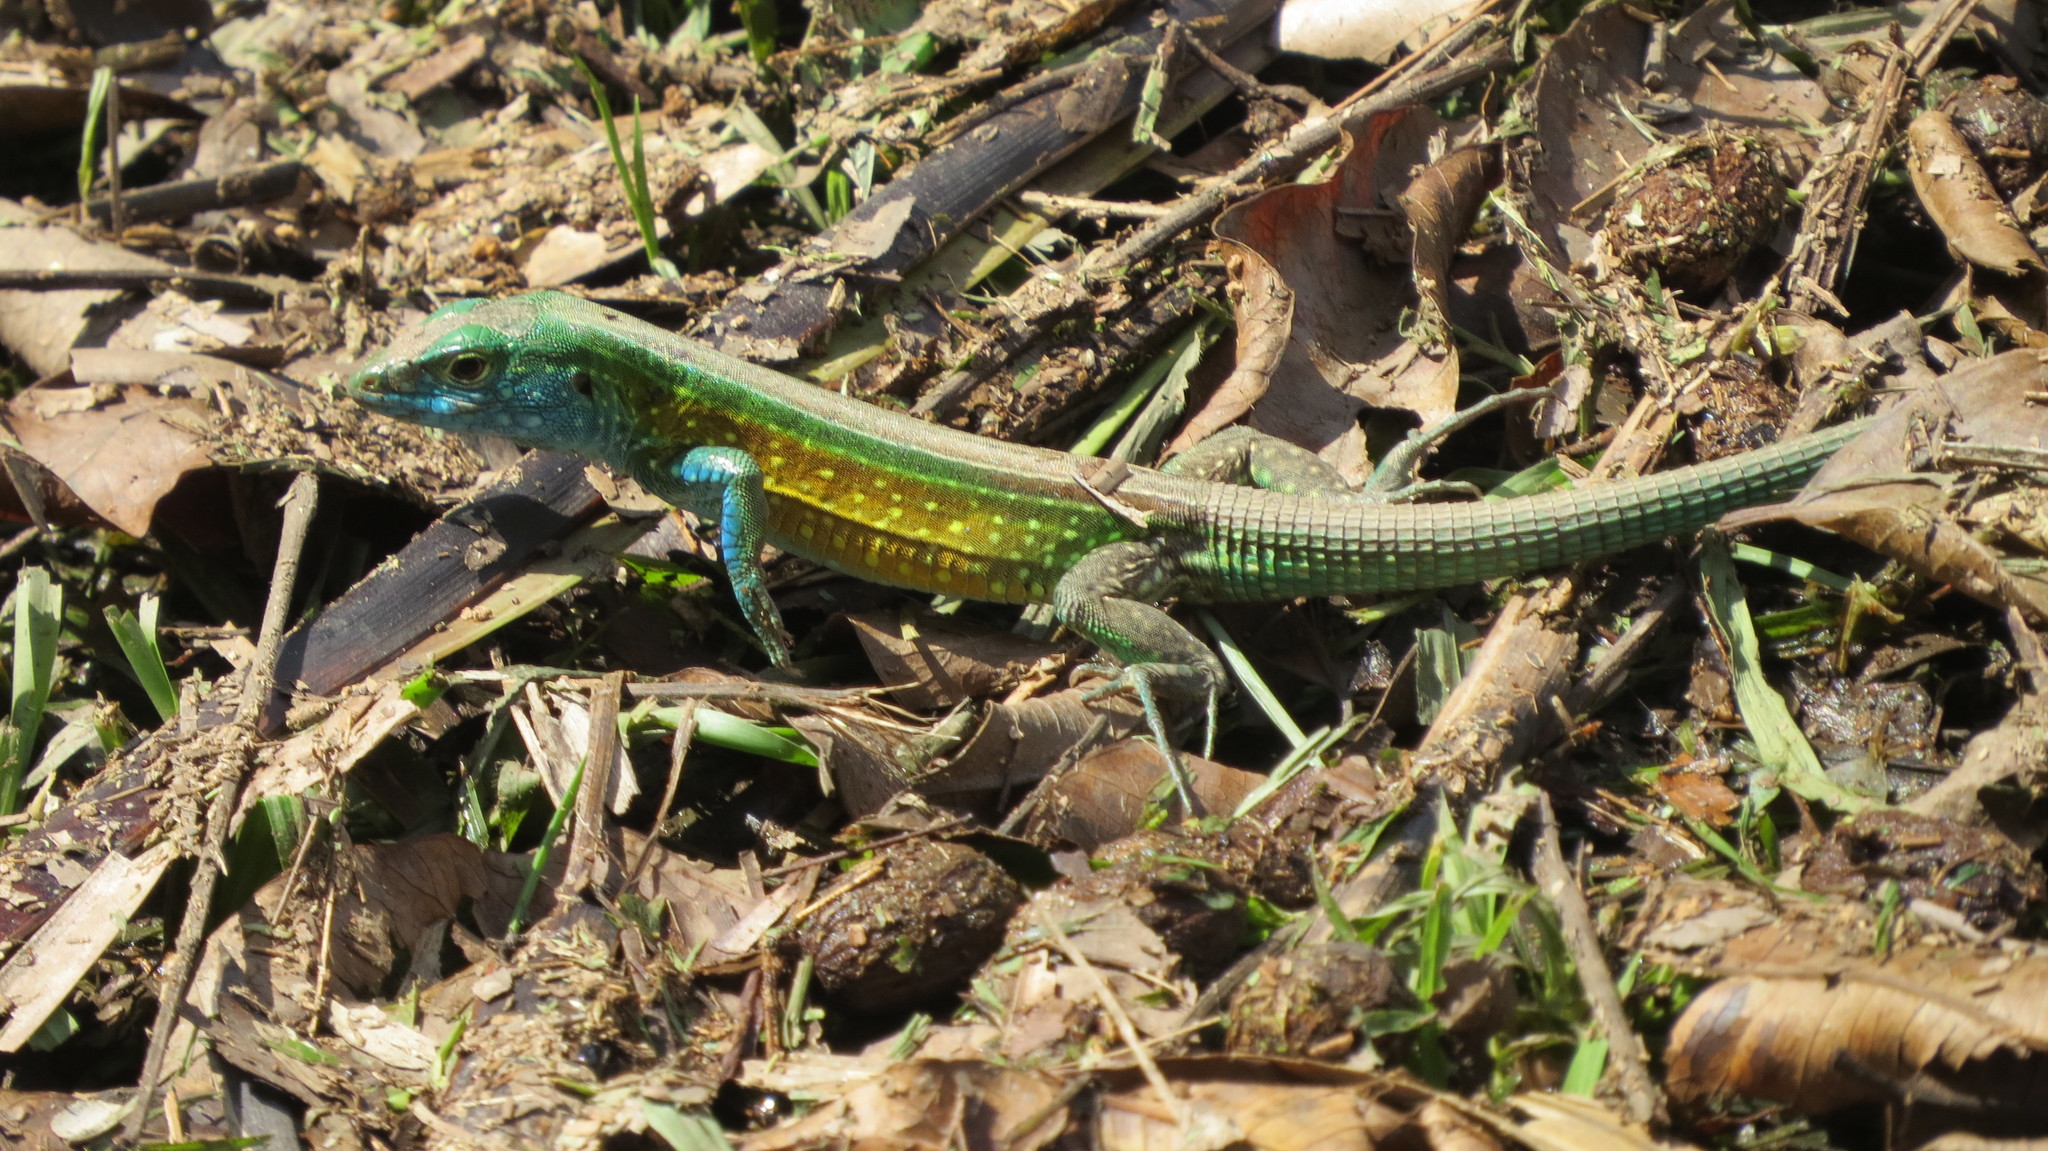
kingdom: Animalia
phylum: Chordata
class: Squamata
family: Teiidae
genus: Cnemidophorus
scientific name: Cnemidophorus gaigei
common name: Gaige’s rainbow lizard
